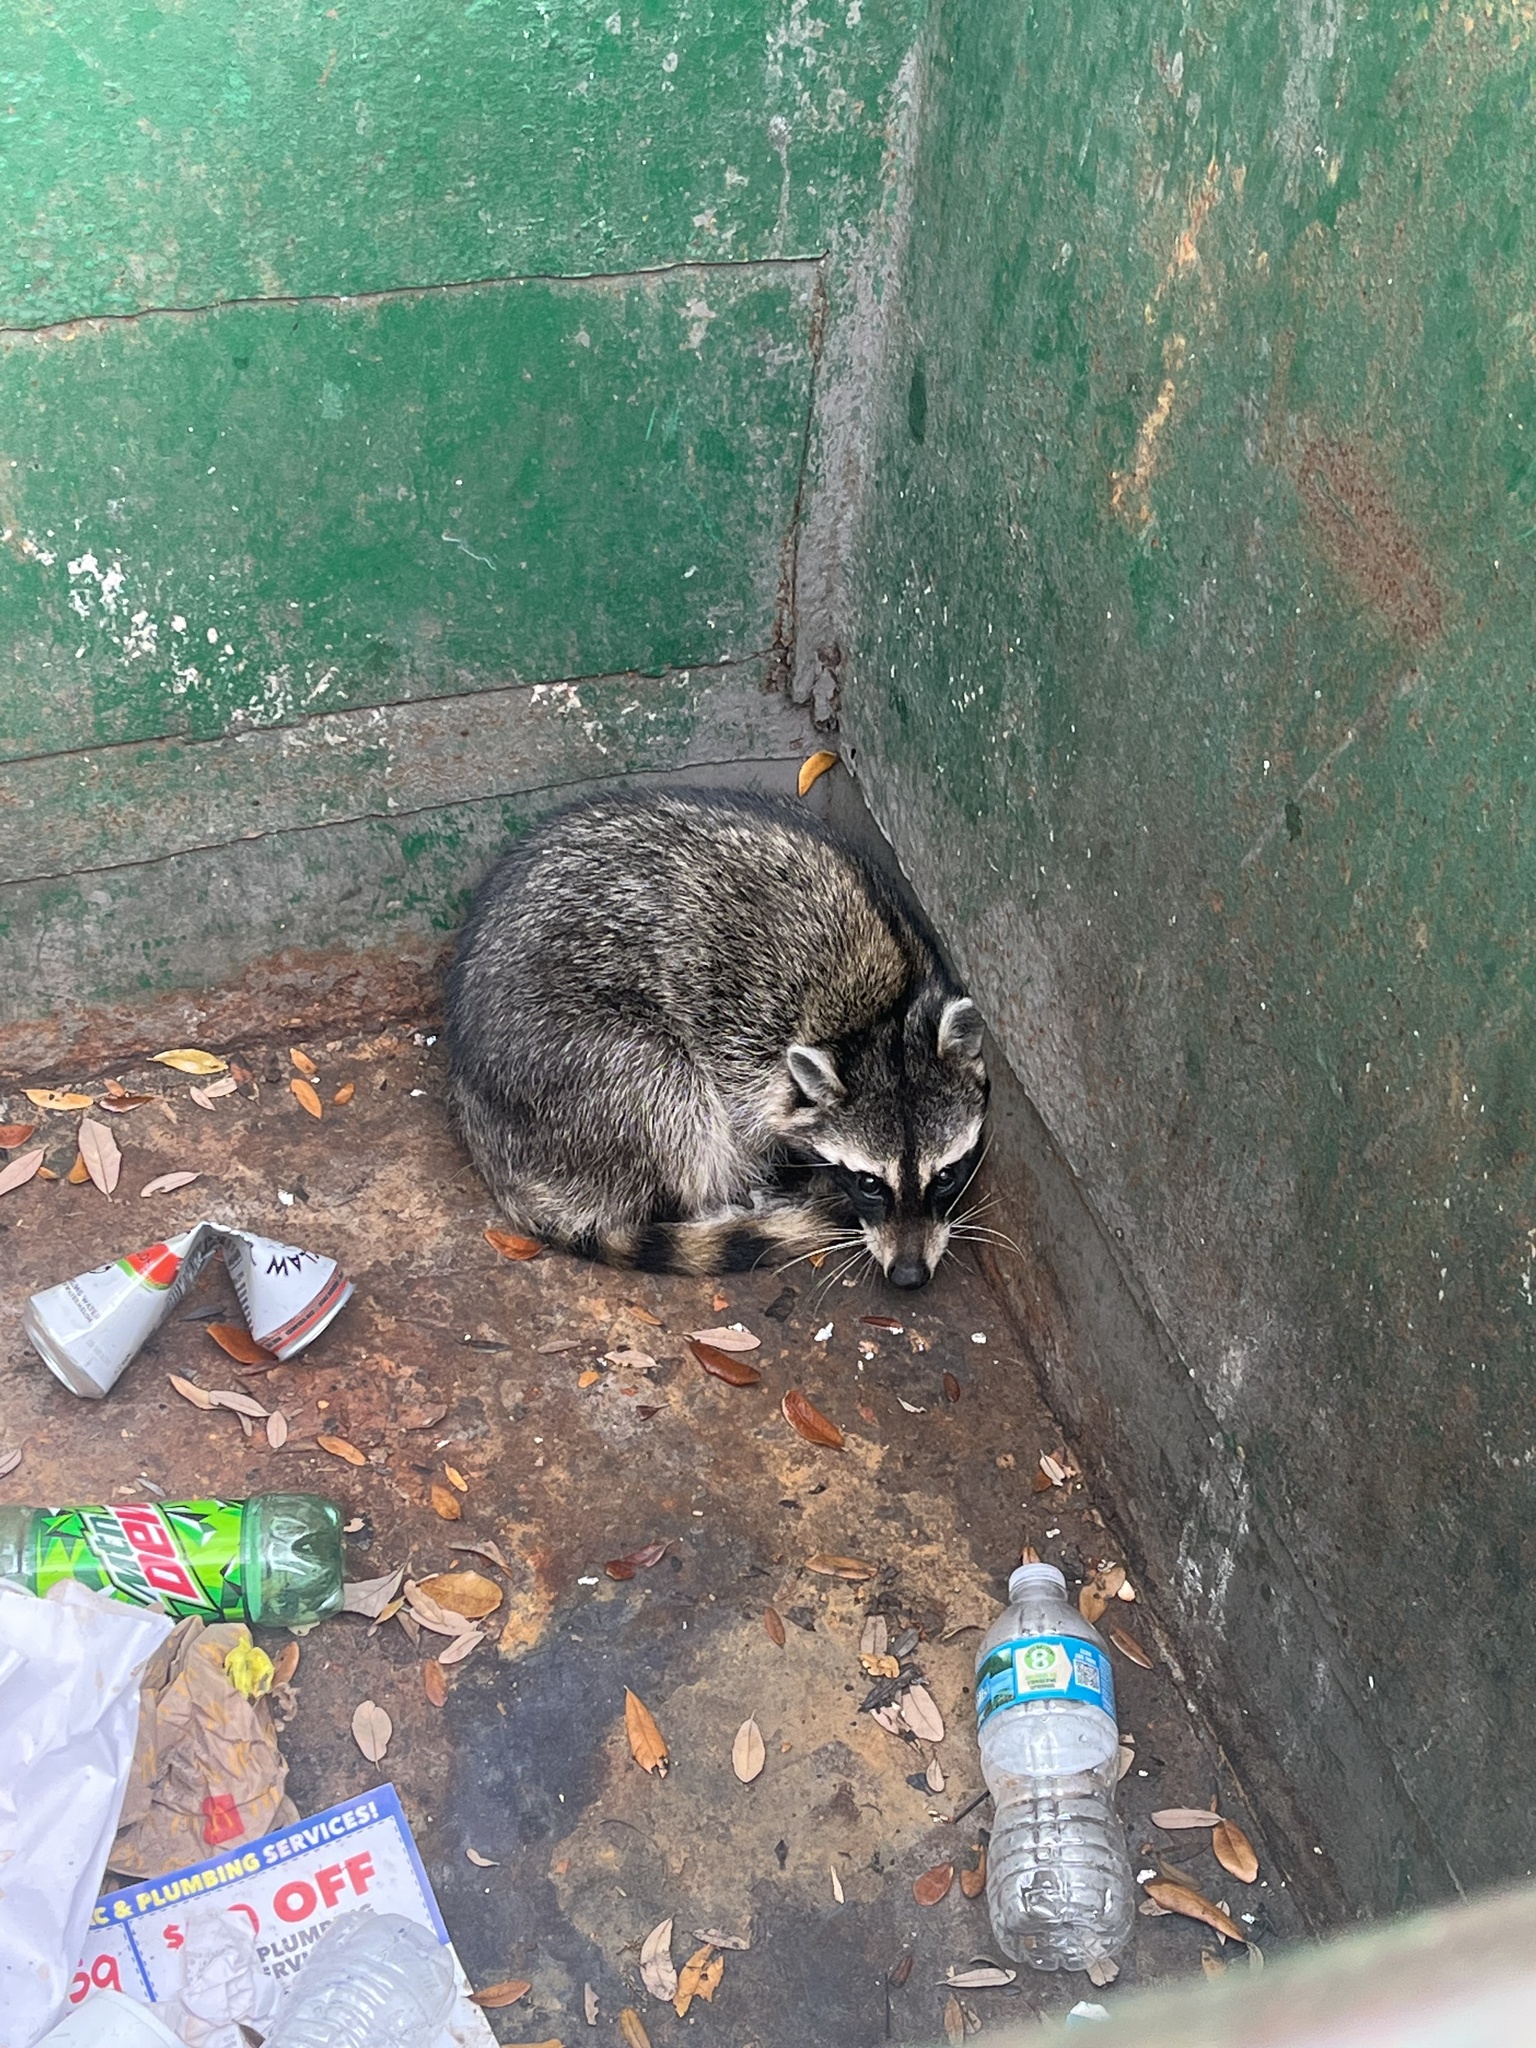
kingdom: Animalia
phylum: Chordata
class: Mammalia
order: Carnivora
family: Procyonidae
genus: Procyon
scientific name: Procyon lotor
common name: Raccoon
